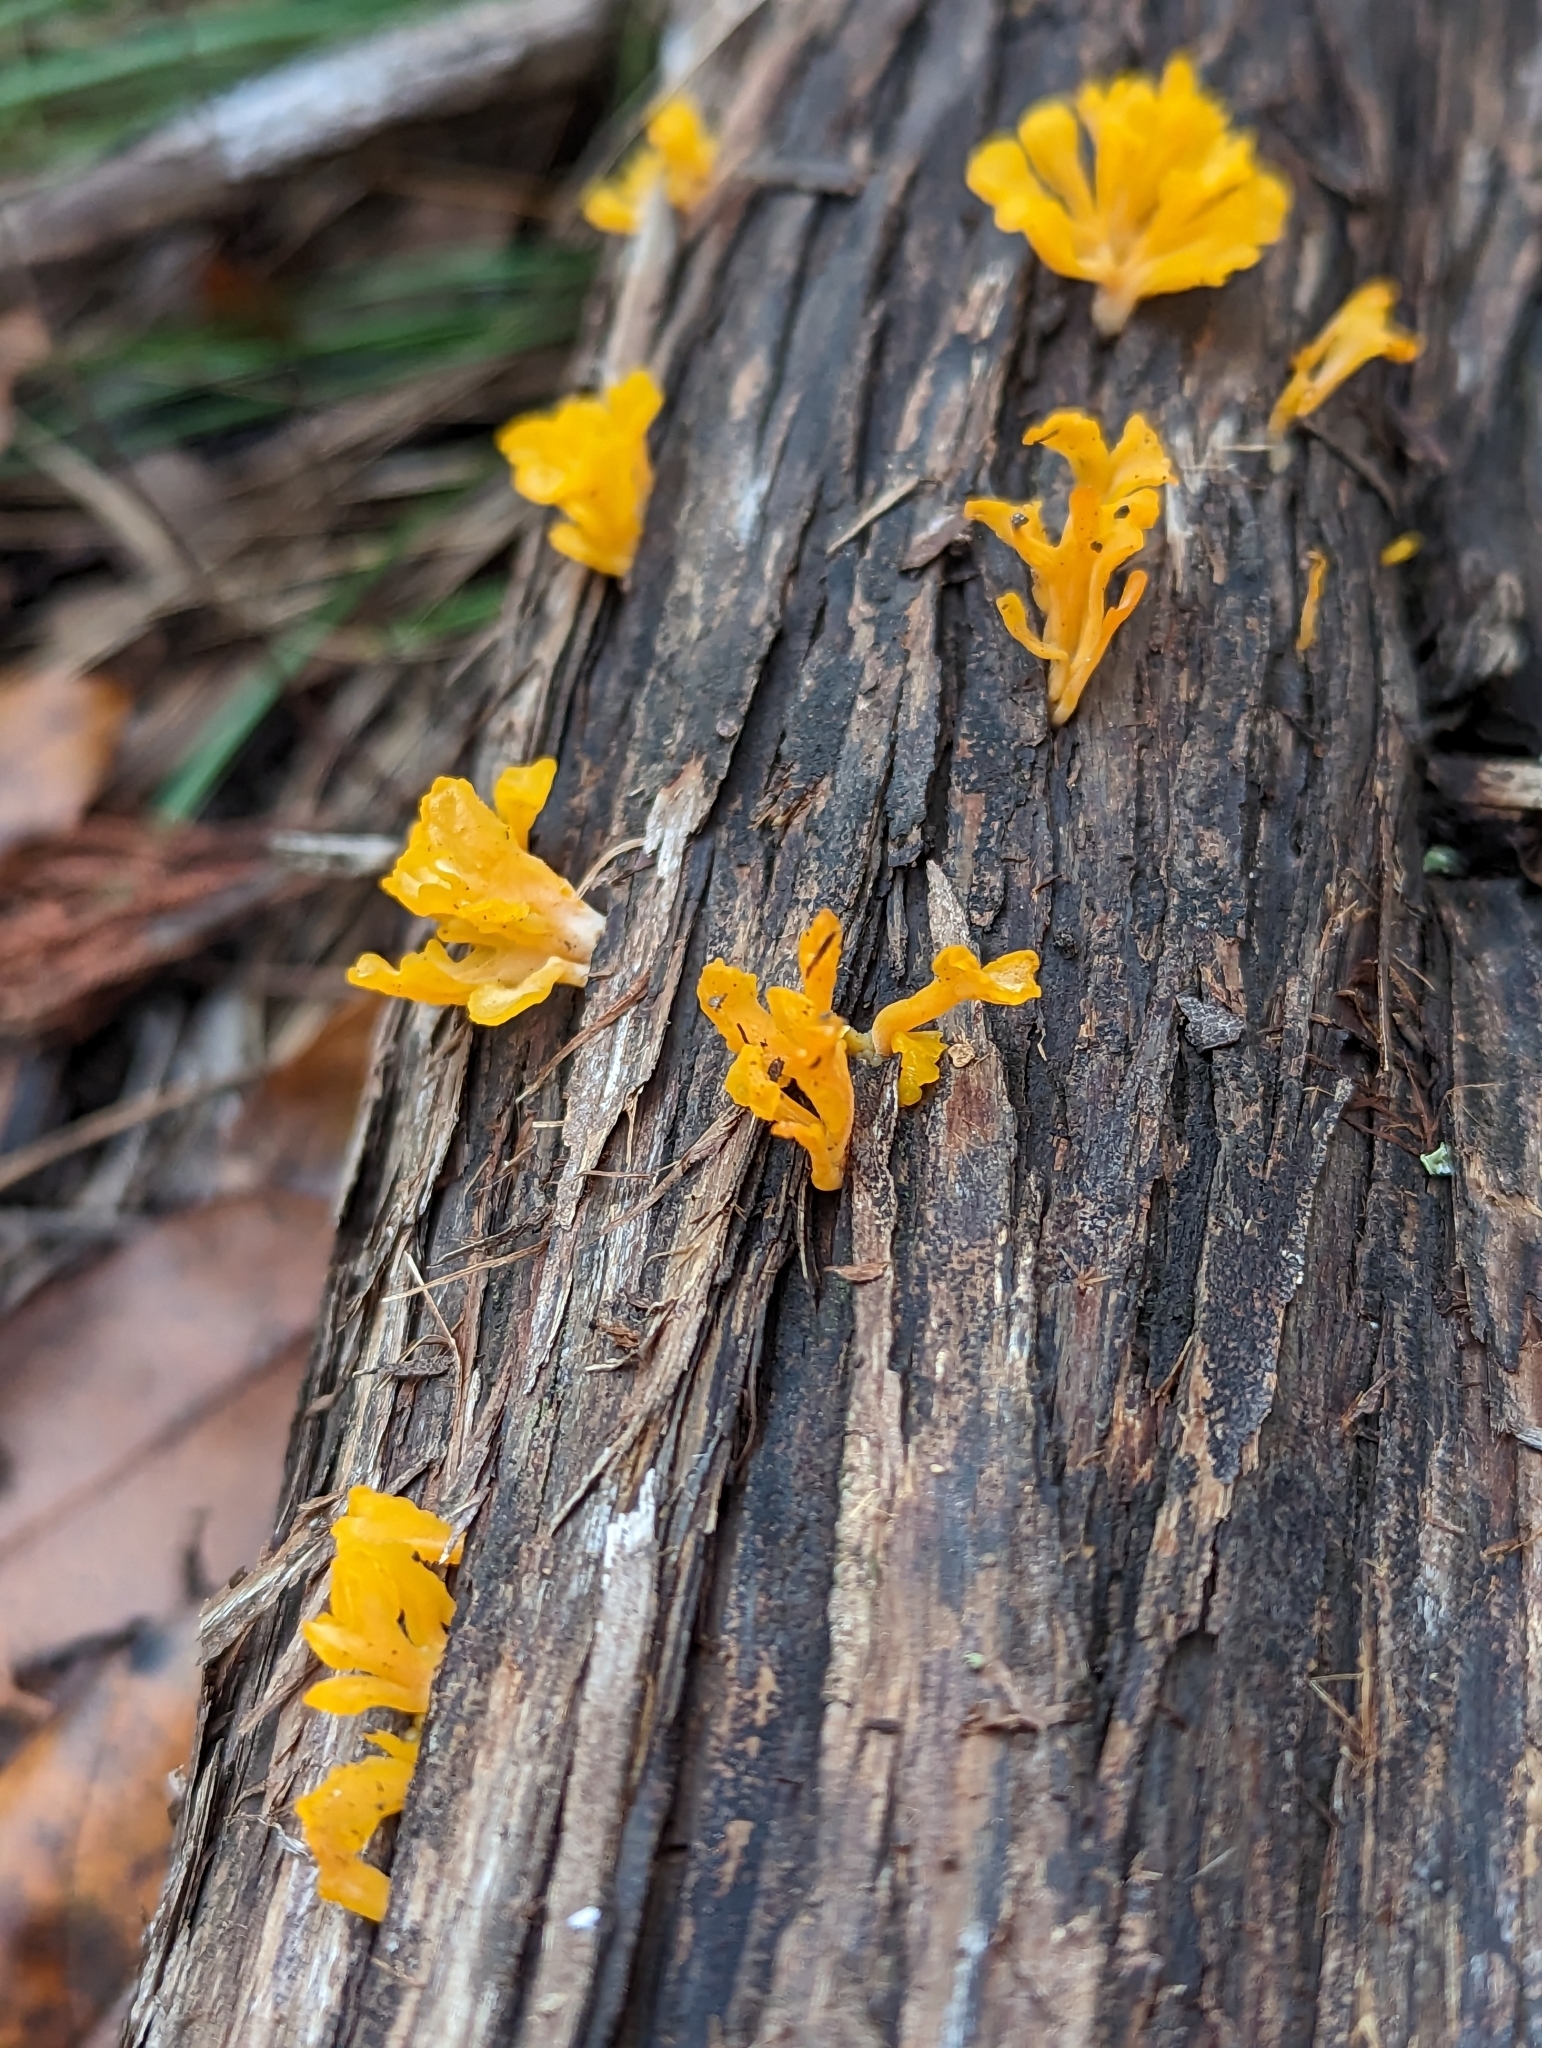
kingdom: Fungi
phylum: Basidiomycota
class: Dacrymycetes
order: Dacrymycetales
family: Dacrymycetaceae
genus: Dacrymyces
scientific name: Dacrymyces spathularius
